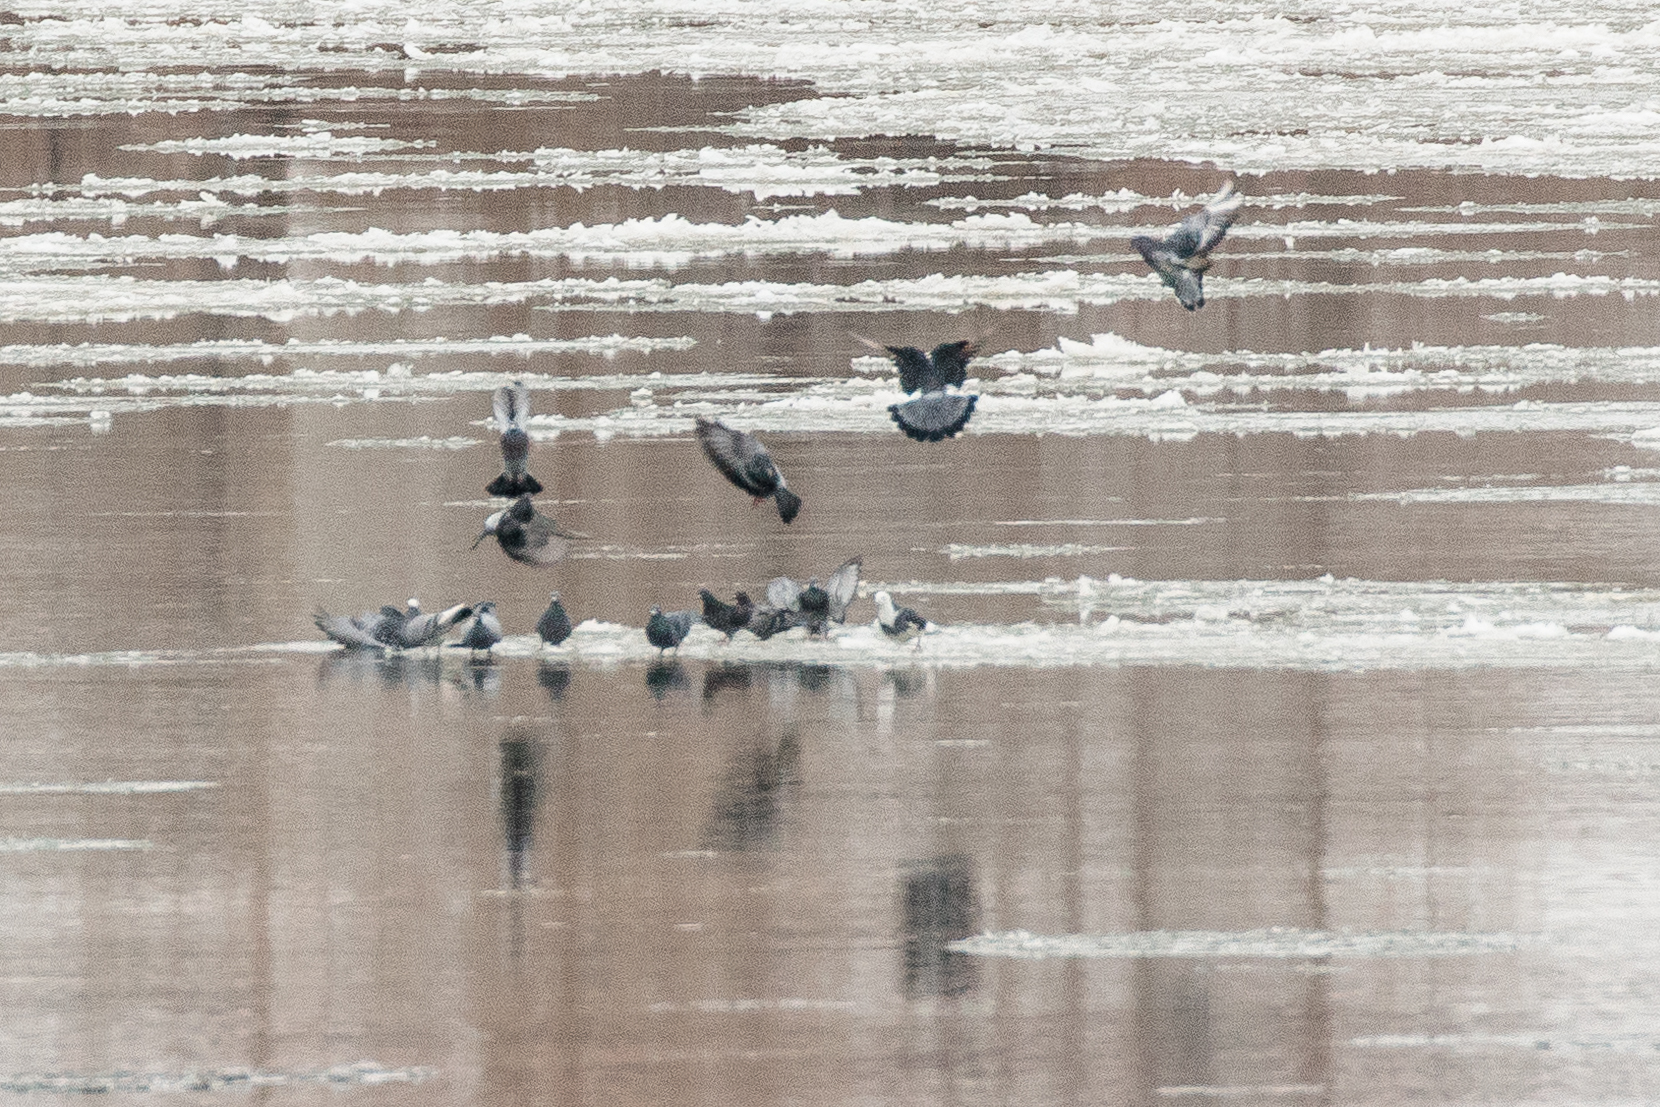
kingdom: Animalia
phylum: Chordata
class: Aves
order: Columbiformes
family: Columbidae
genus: Columba
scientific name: Columba livia
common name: Rock pigeon
